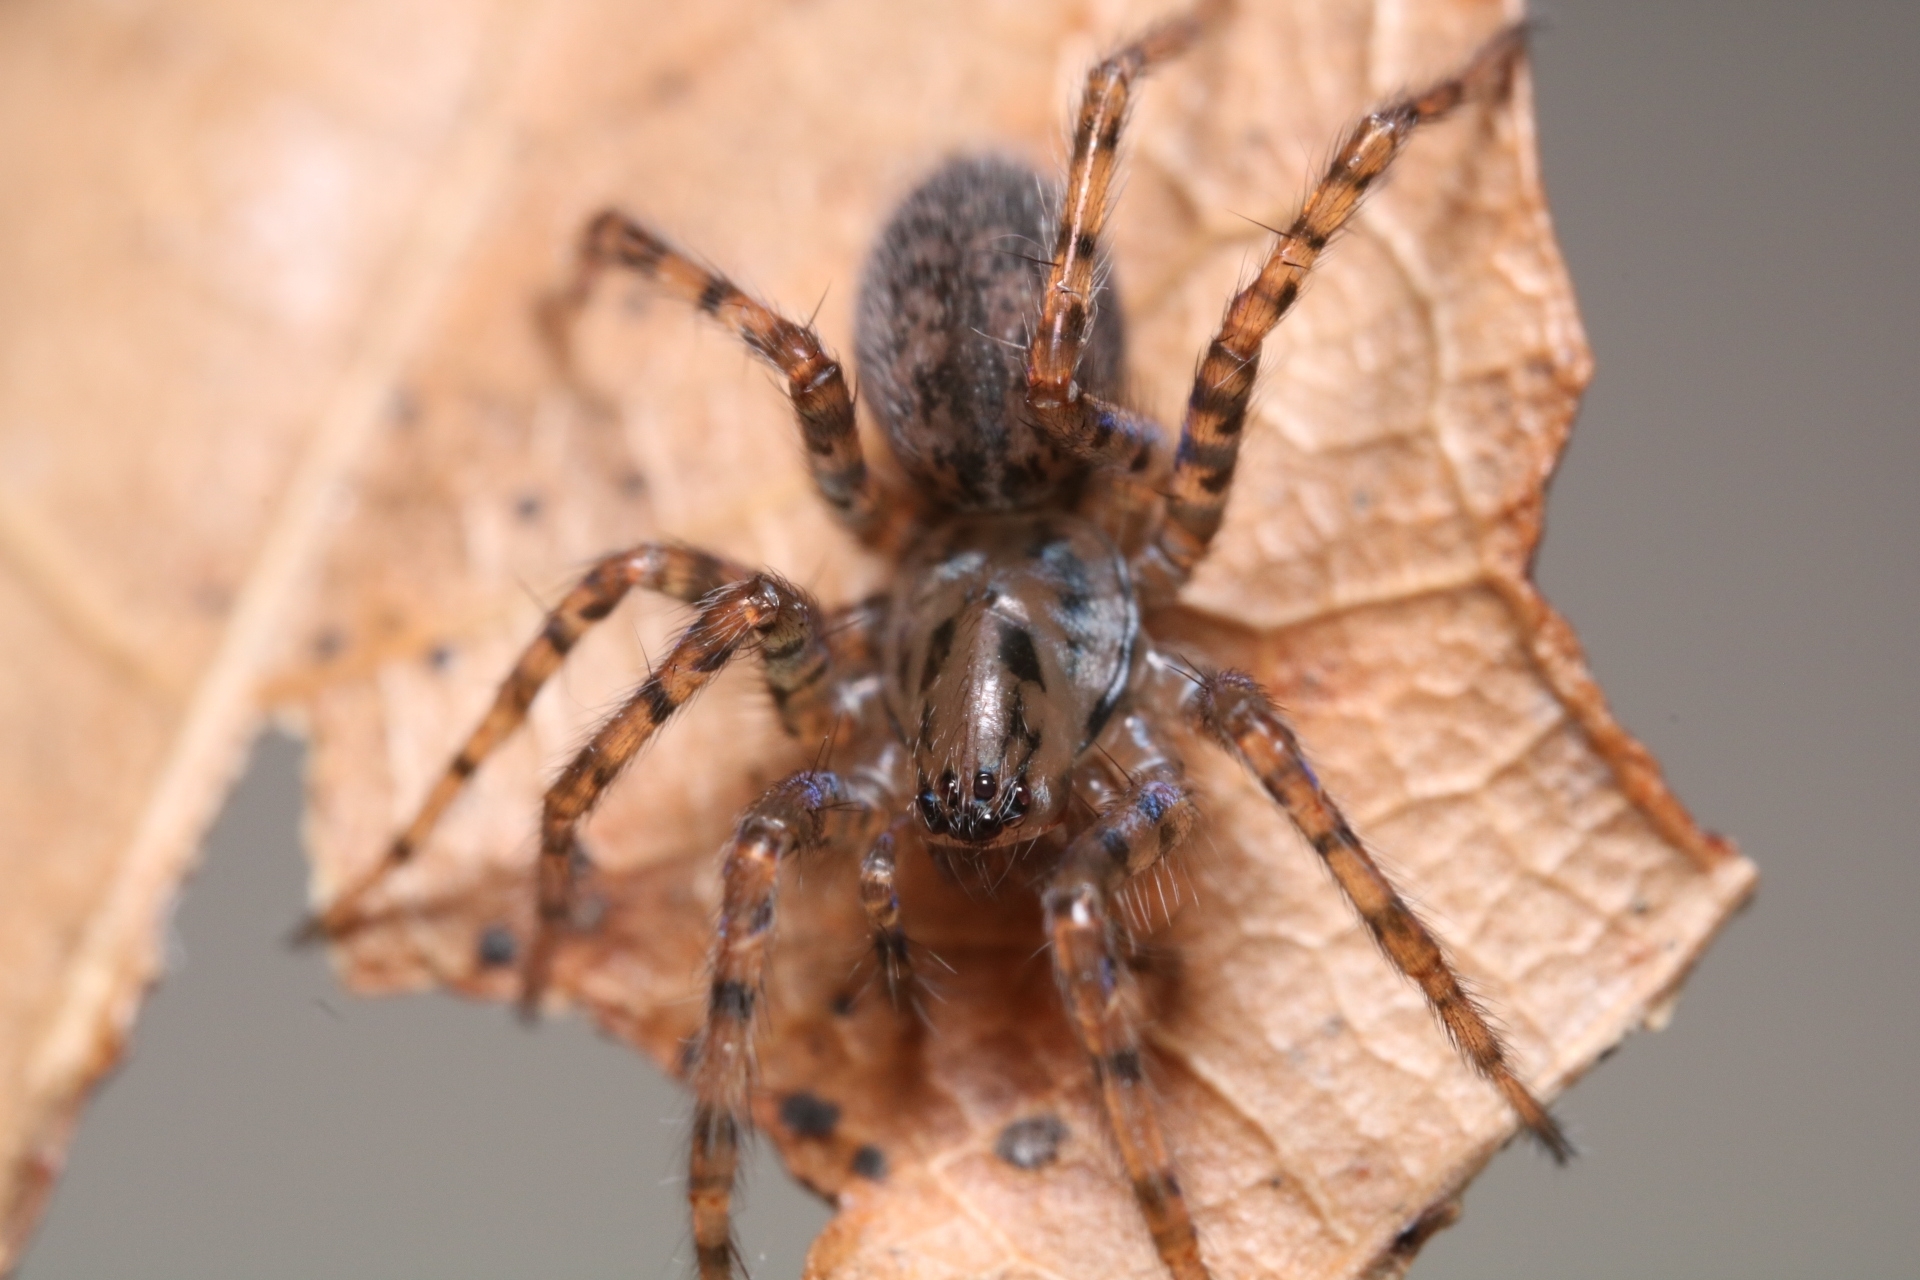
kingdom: Animalia
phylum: Arthropoda
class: Arachnida
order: Araneae
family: Agelenidae
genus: Coras
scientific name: Coras
